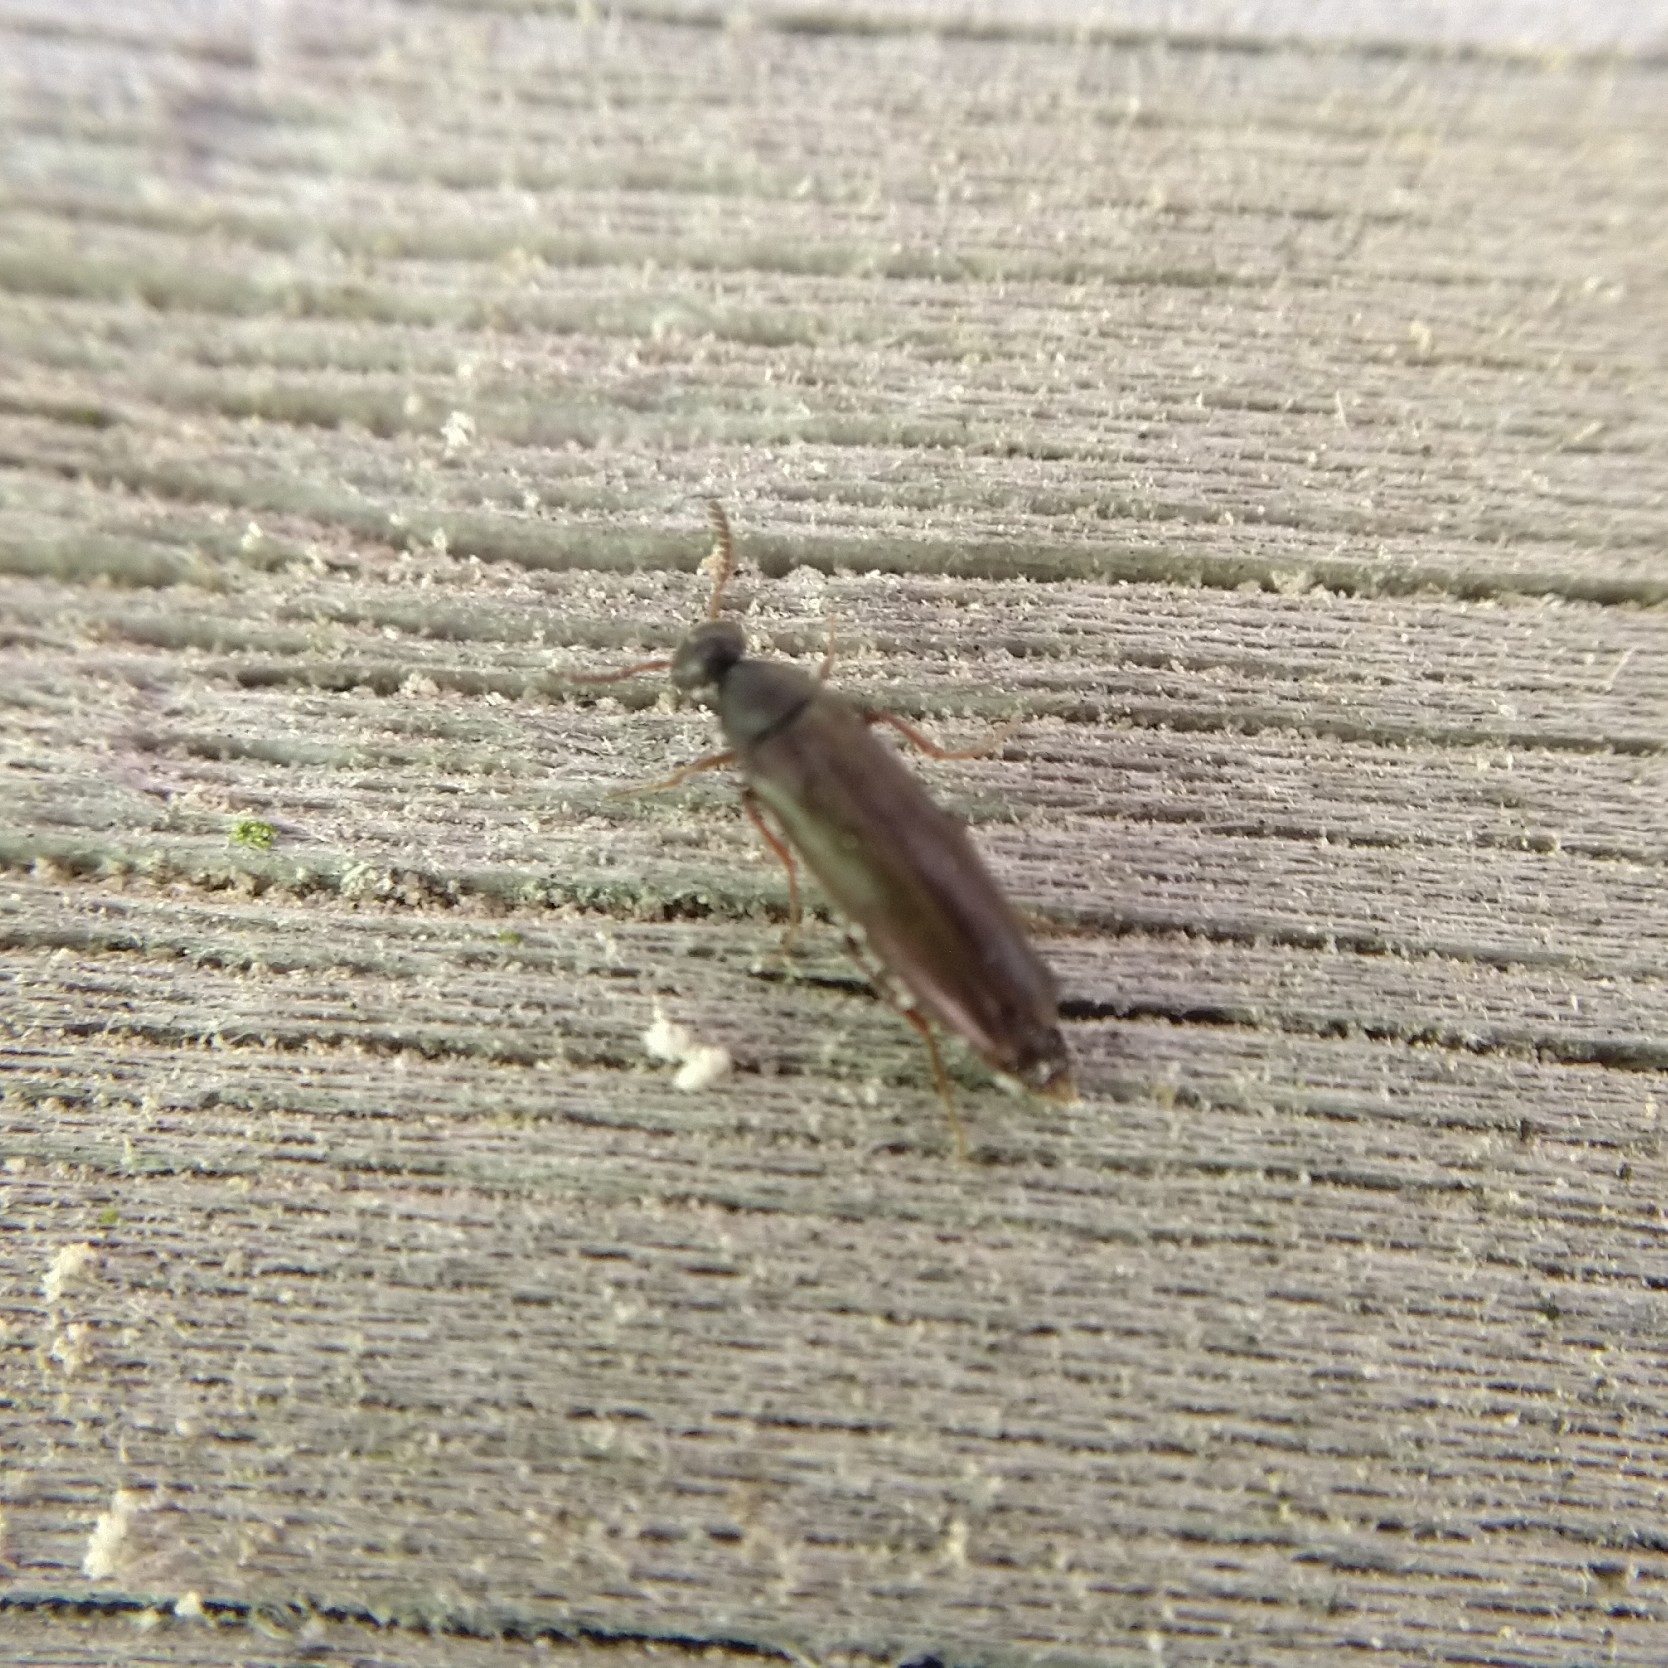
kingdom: Animalia
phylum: Arthropoda
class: Insecta
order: Coleoptera
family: Ripiphoridae
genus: Pelecotoma
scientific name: Pelecotoma fennica
